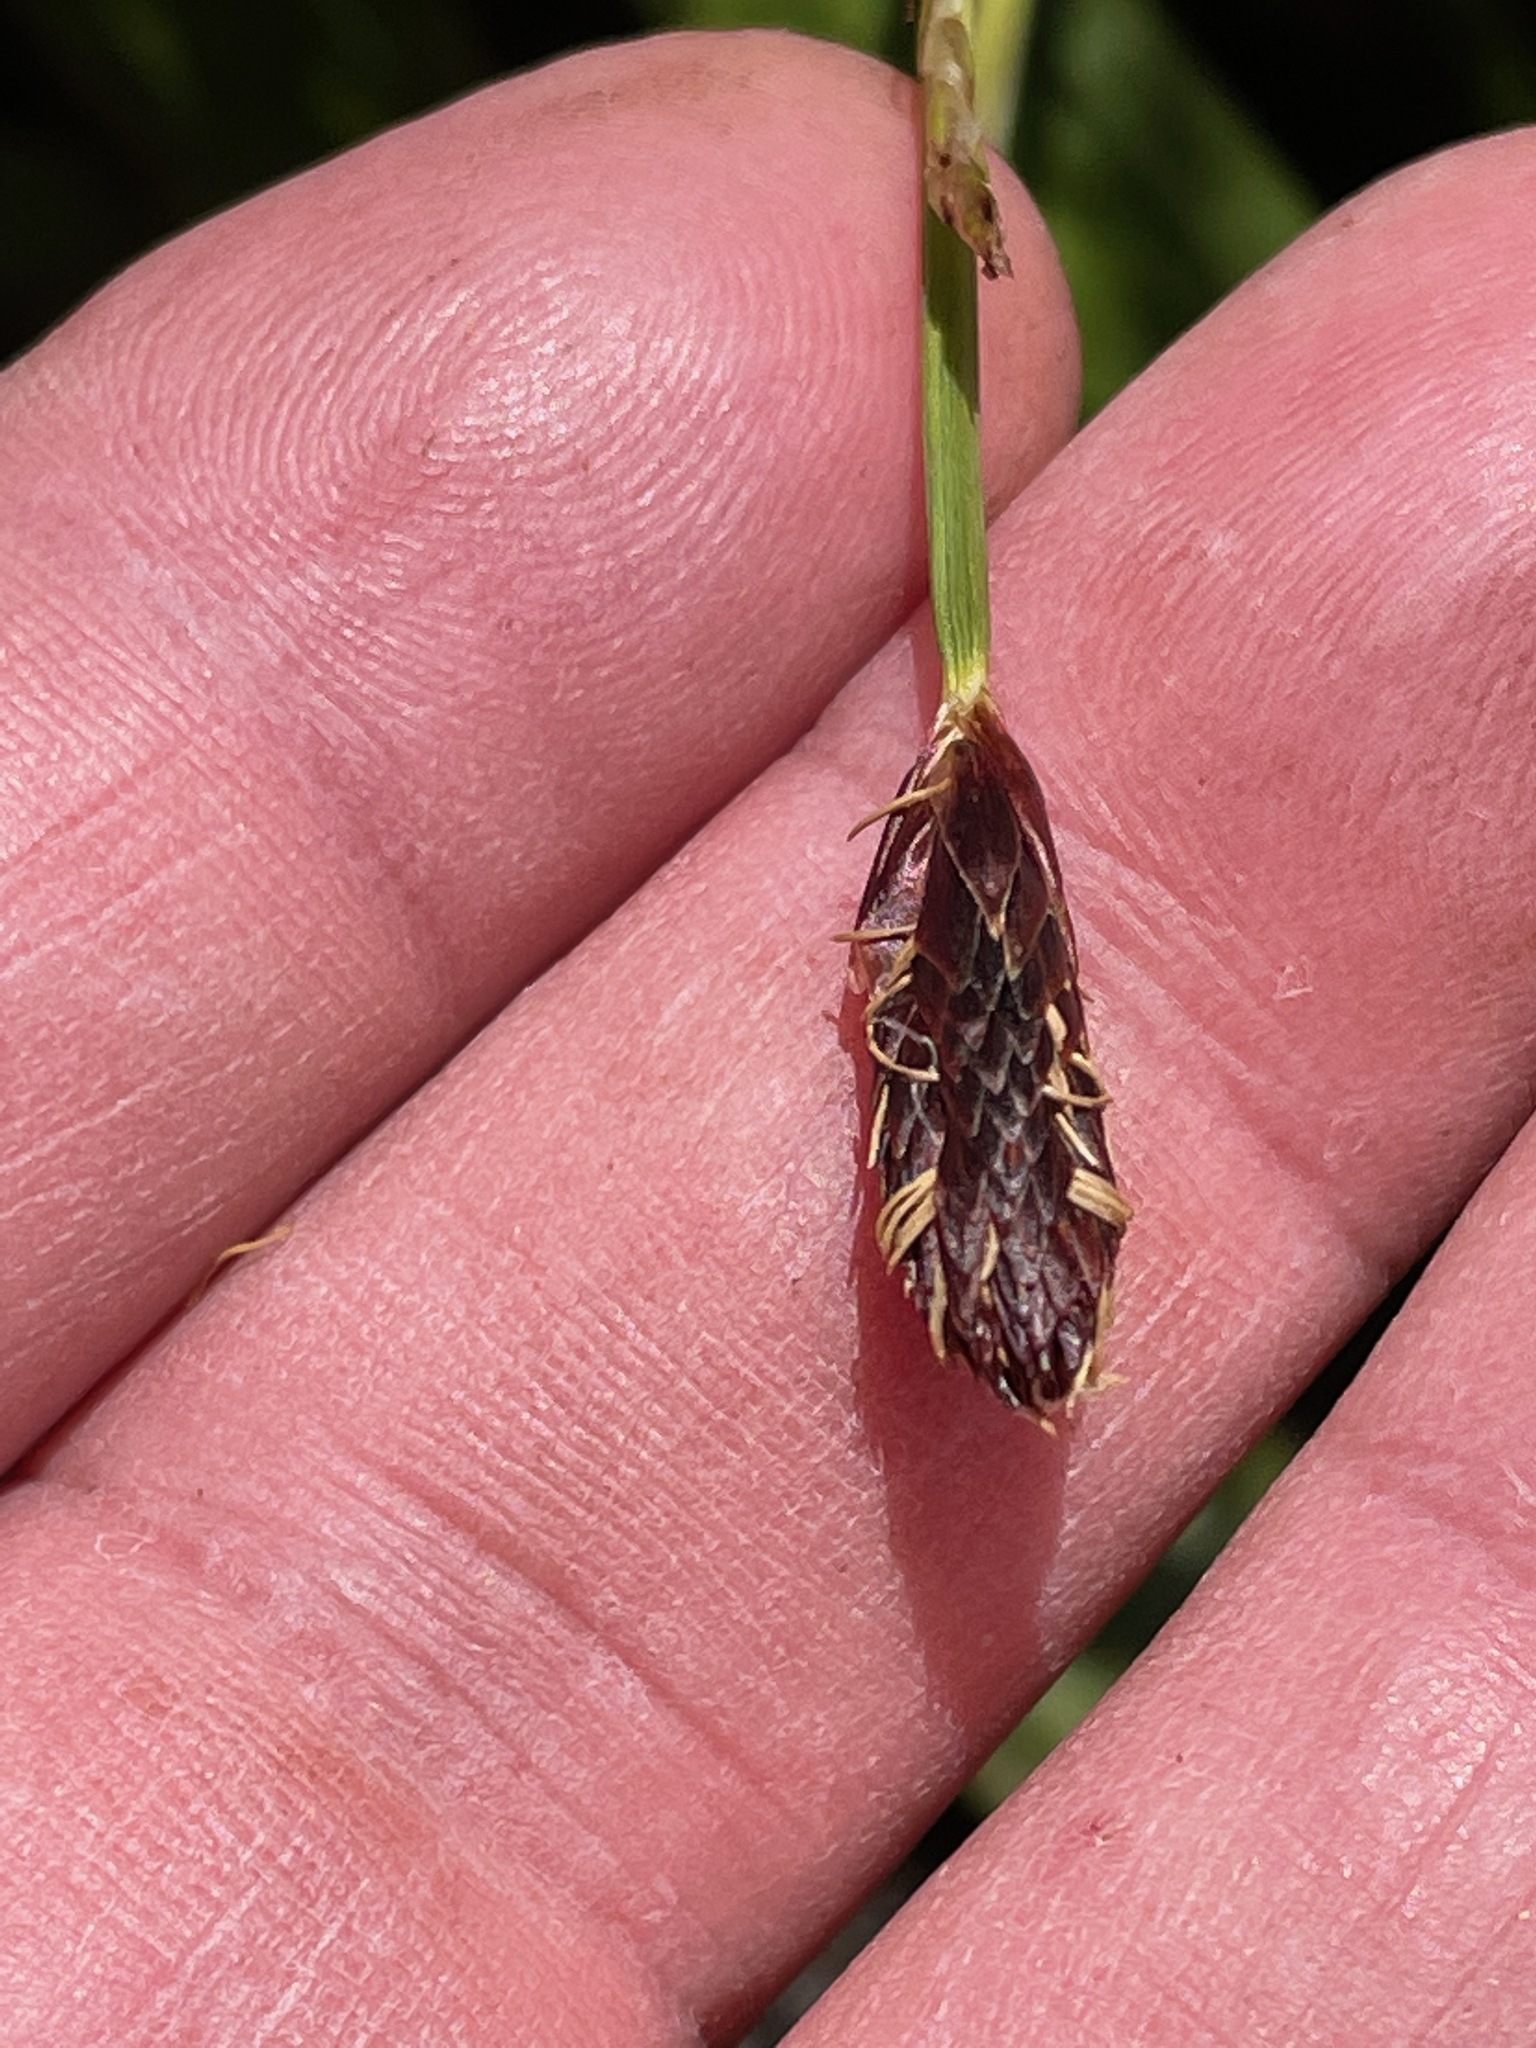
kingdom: Plantae
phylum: Tracheophyta
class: Liliopsida
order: Poales
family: Cyperaceae
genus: Carex
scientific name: Carex plantaginea
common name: Plantain-leaved sedge
